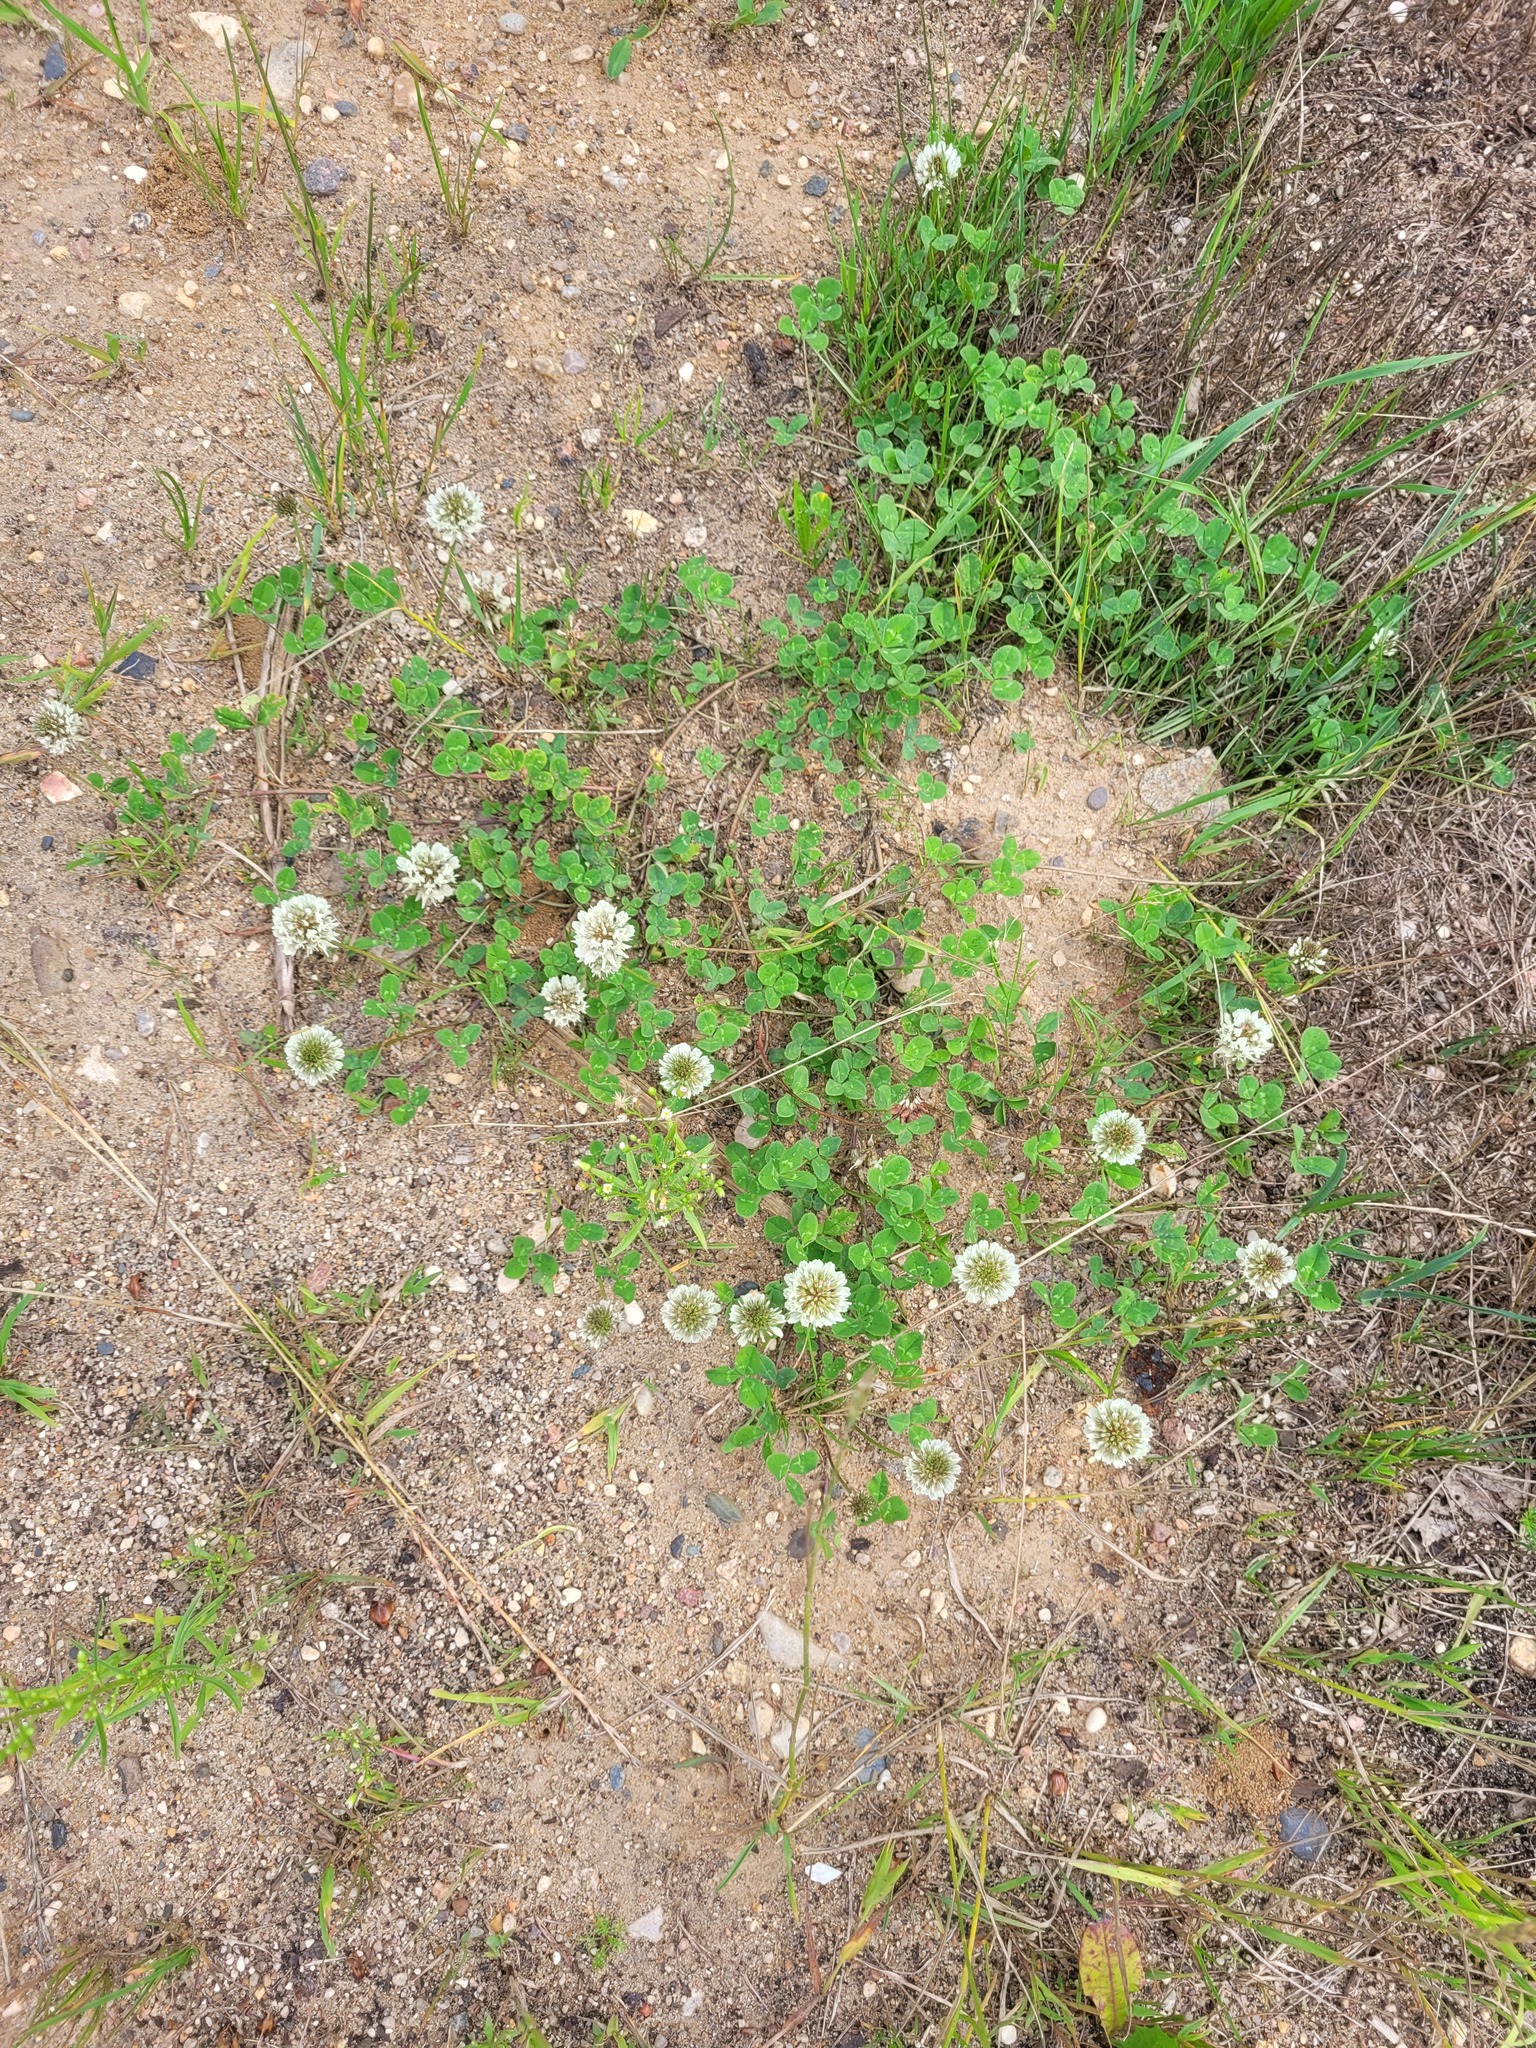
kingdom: Plantae
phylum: Tracheophyta
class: Magnoliopsida
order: Fabales
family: Fabaceae
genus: Trifolium
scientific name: Trifolium repens
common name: White clover
